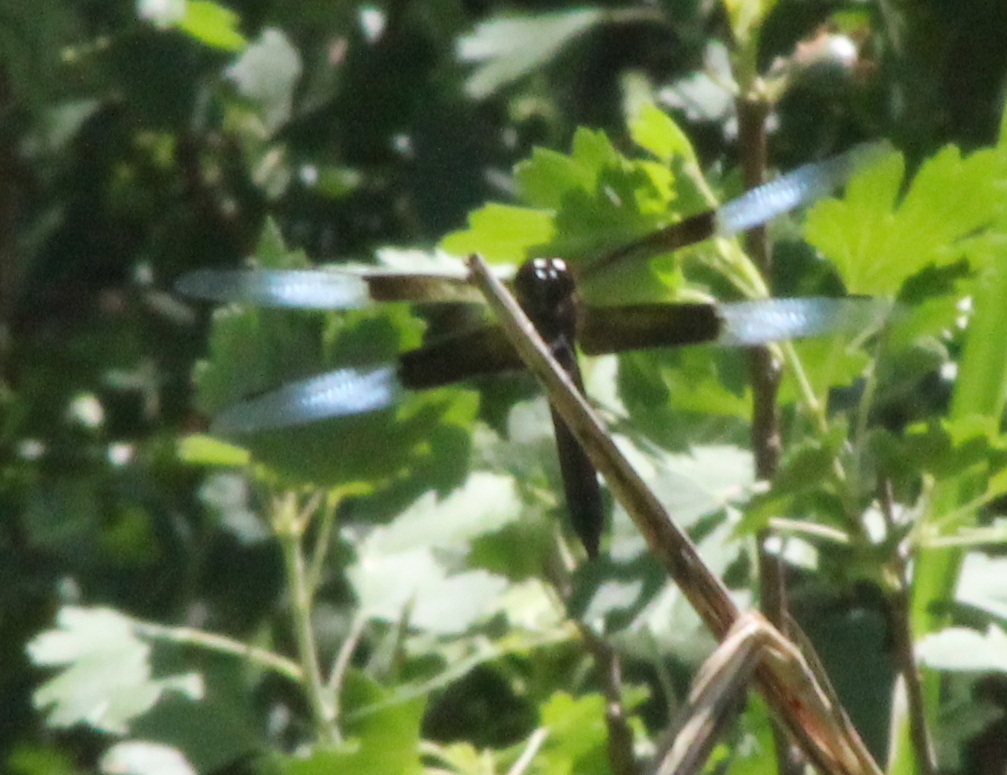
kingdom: Animalia
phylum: Arthropoda
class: Insecta
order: Odonata
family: Libellulidae
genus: Libellula
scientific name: Libellula luctuosa
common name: Widow skimmer
